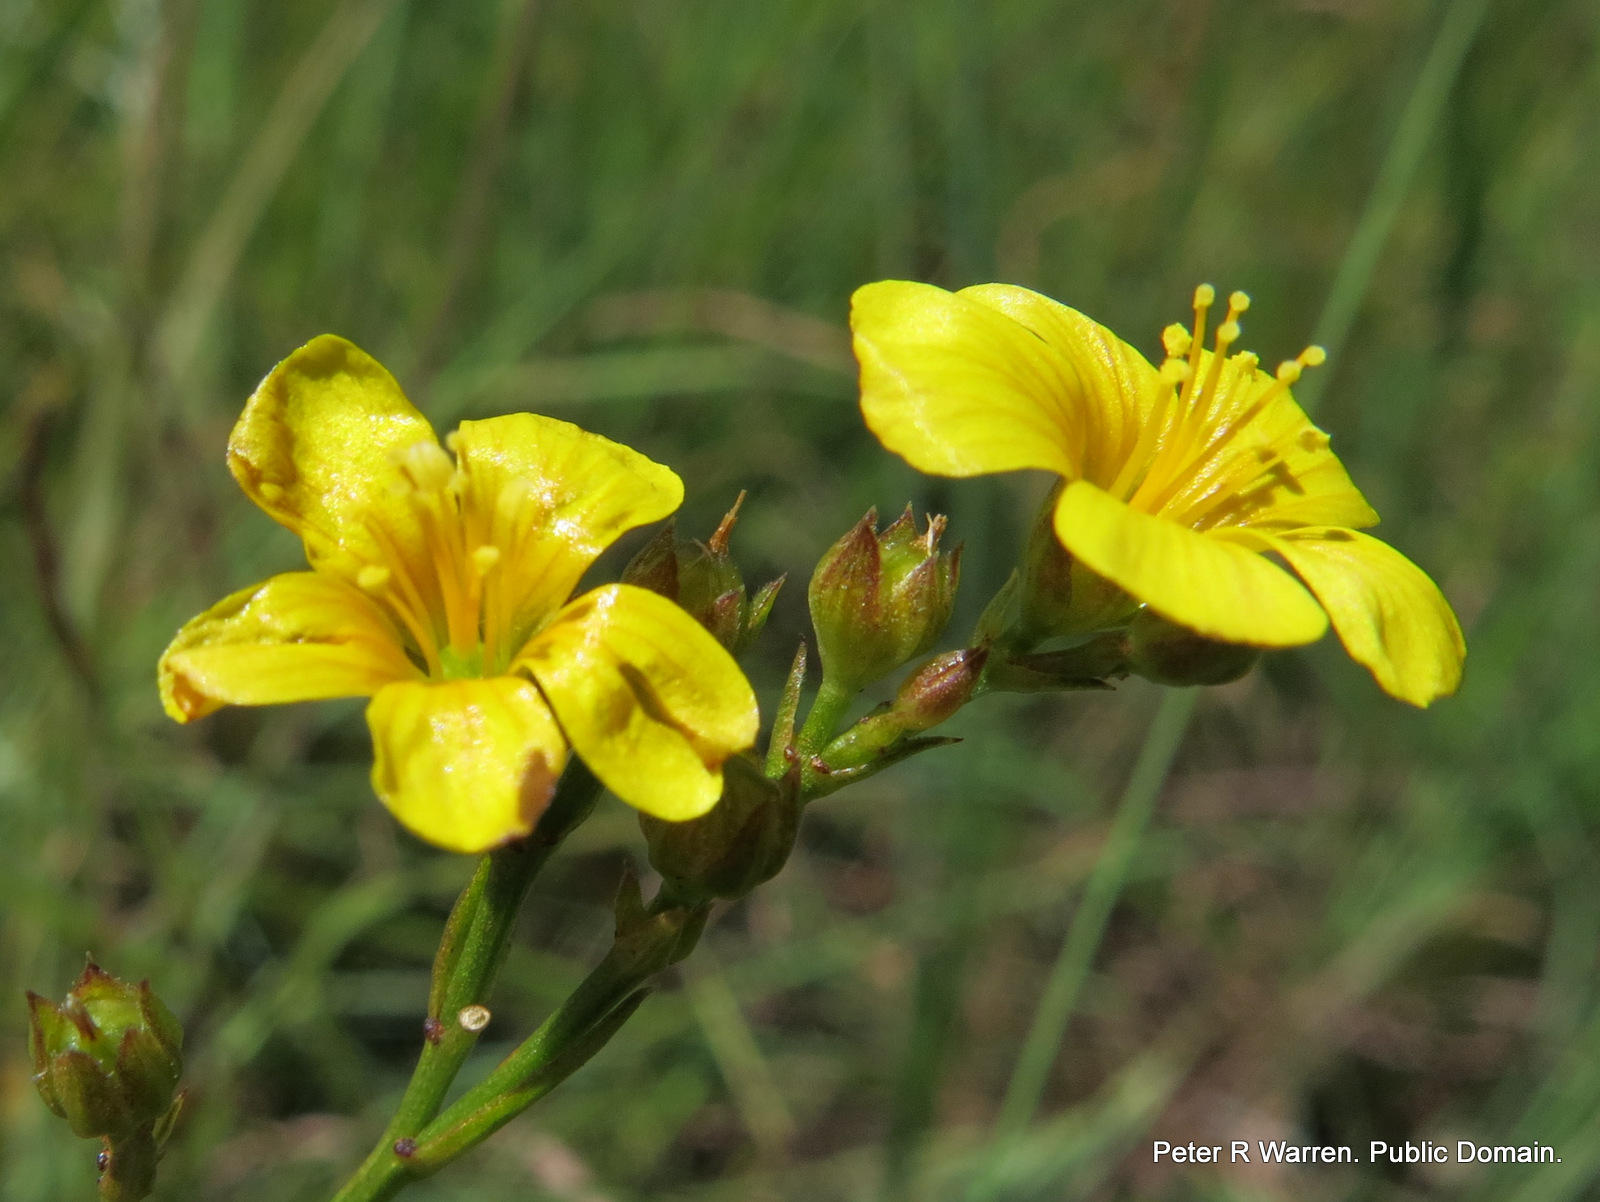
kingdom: Plantae
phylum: Tracheophyta
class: Magnoliopsida
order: Malpighiales
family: Linaceae
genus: Linum
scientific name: Linum thunbergii
